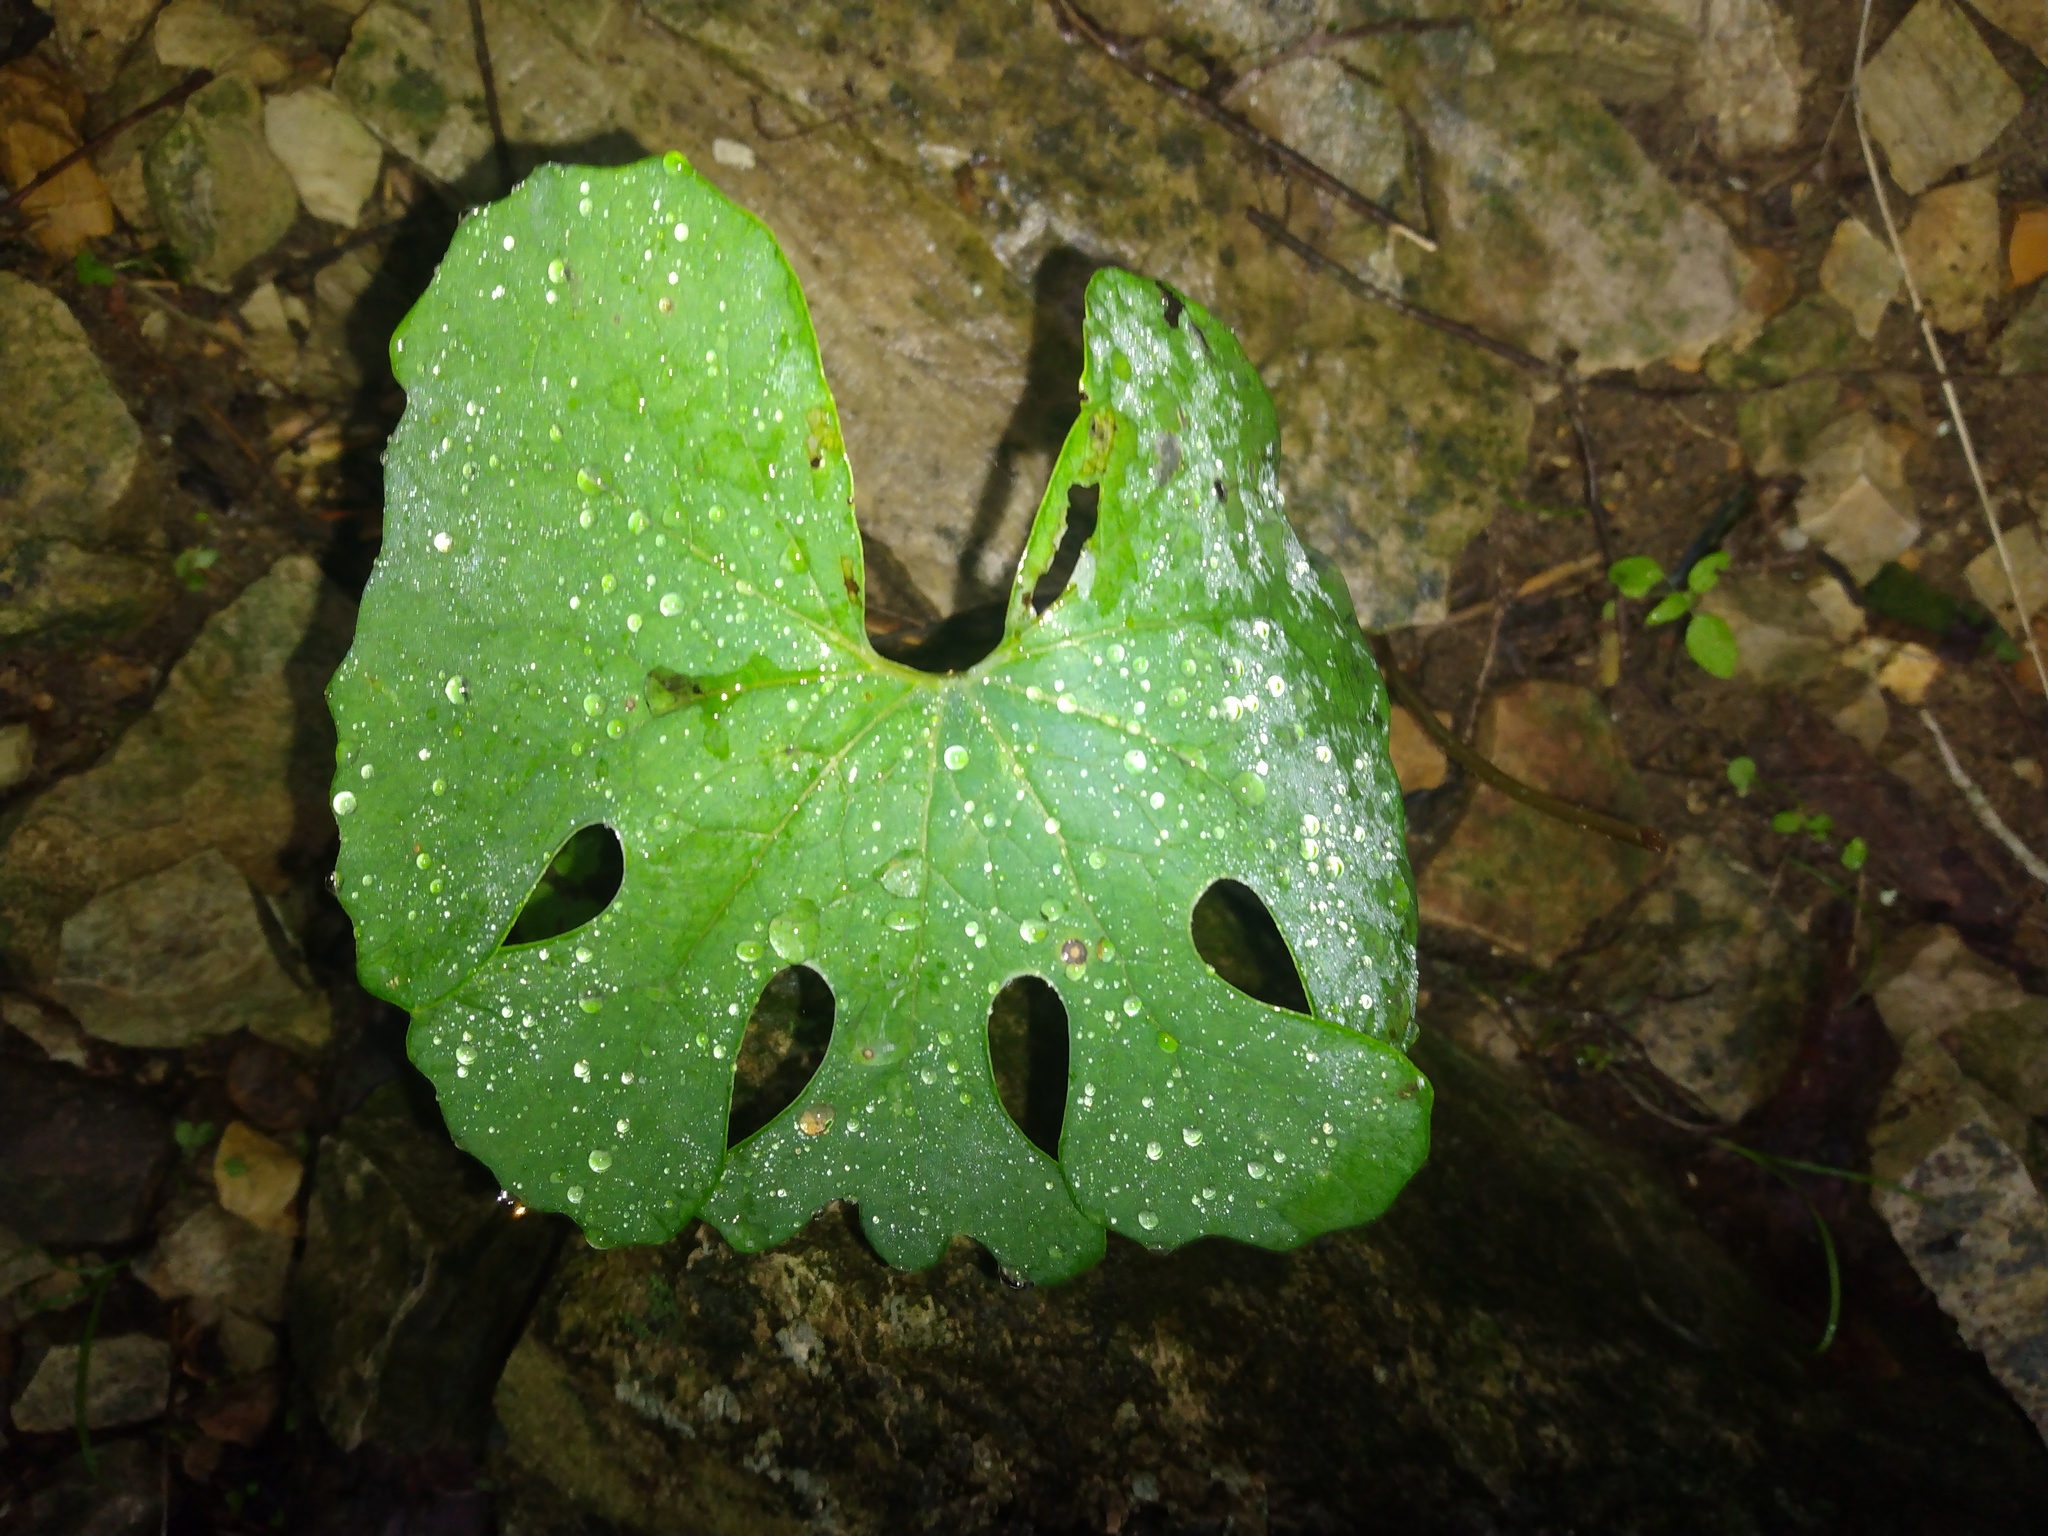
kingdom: Plantae
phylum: Tracheophyta
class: Magnoliopsida
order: Ranunculales
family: Papaveraceae
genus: Sanguinaria
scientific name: Sanguinaria canadensis
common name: Bloodroot
